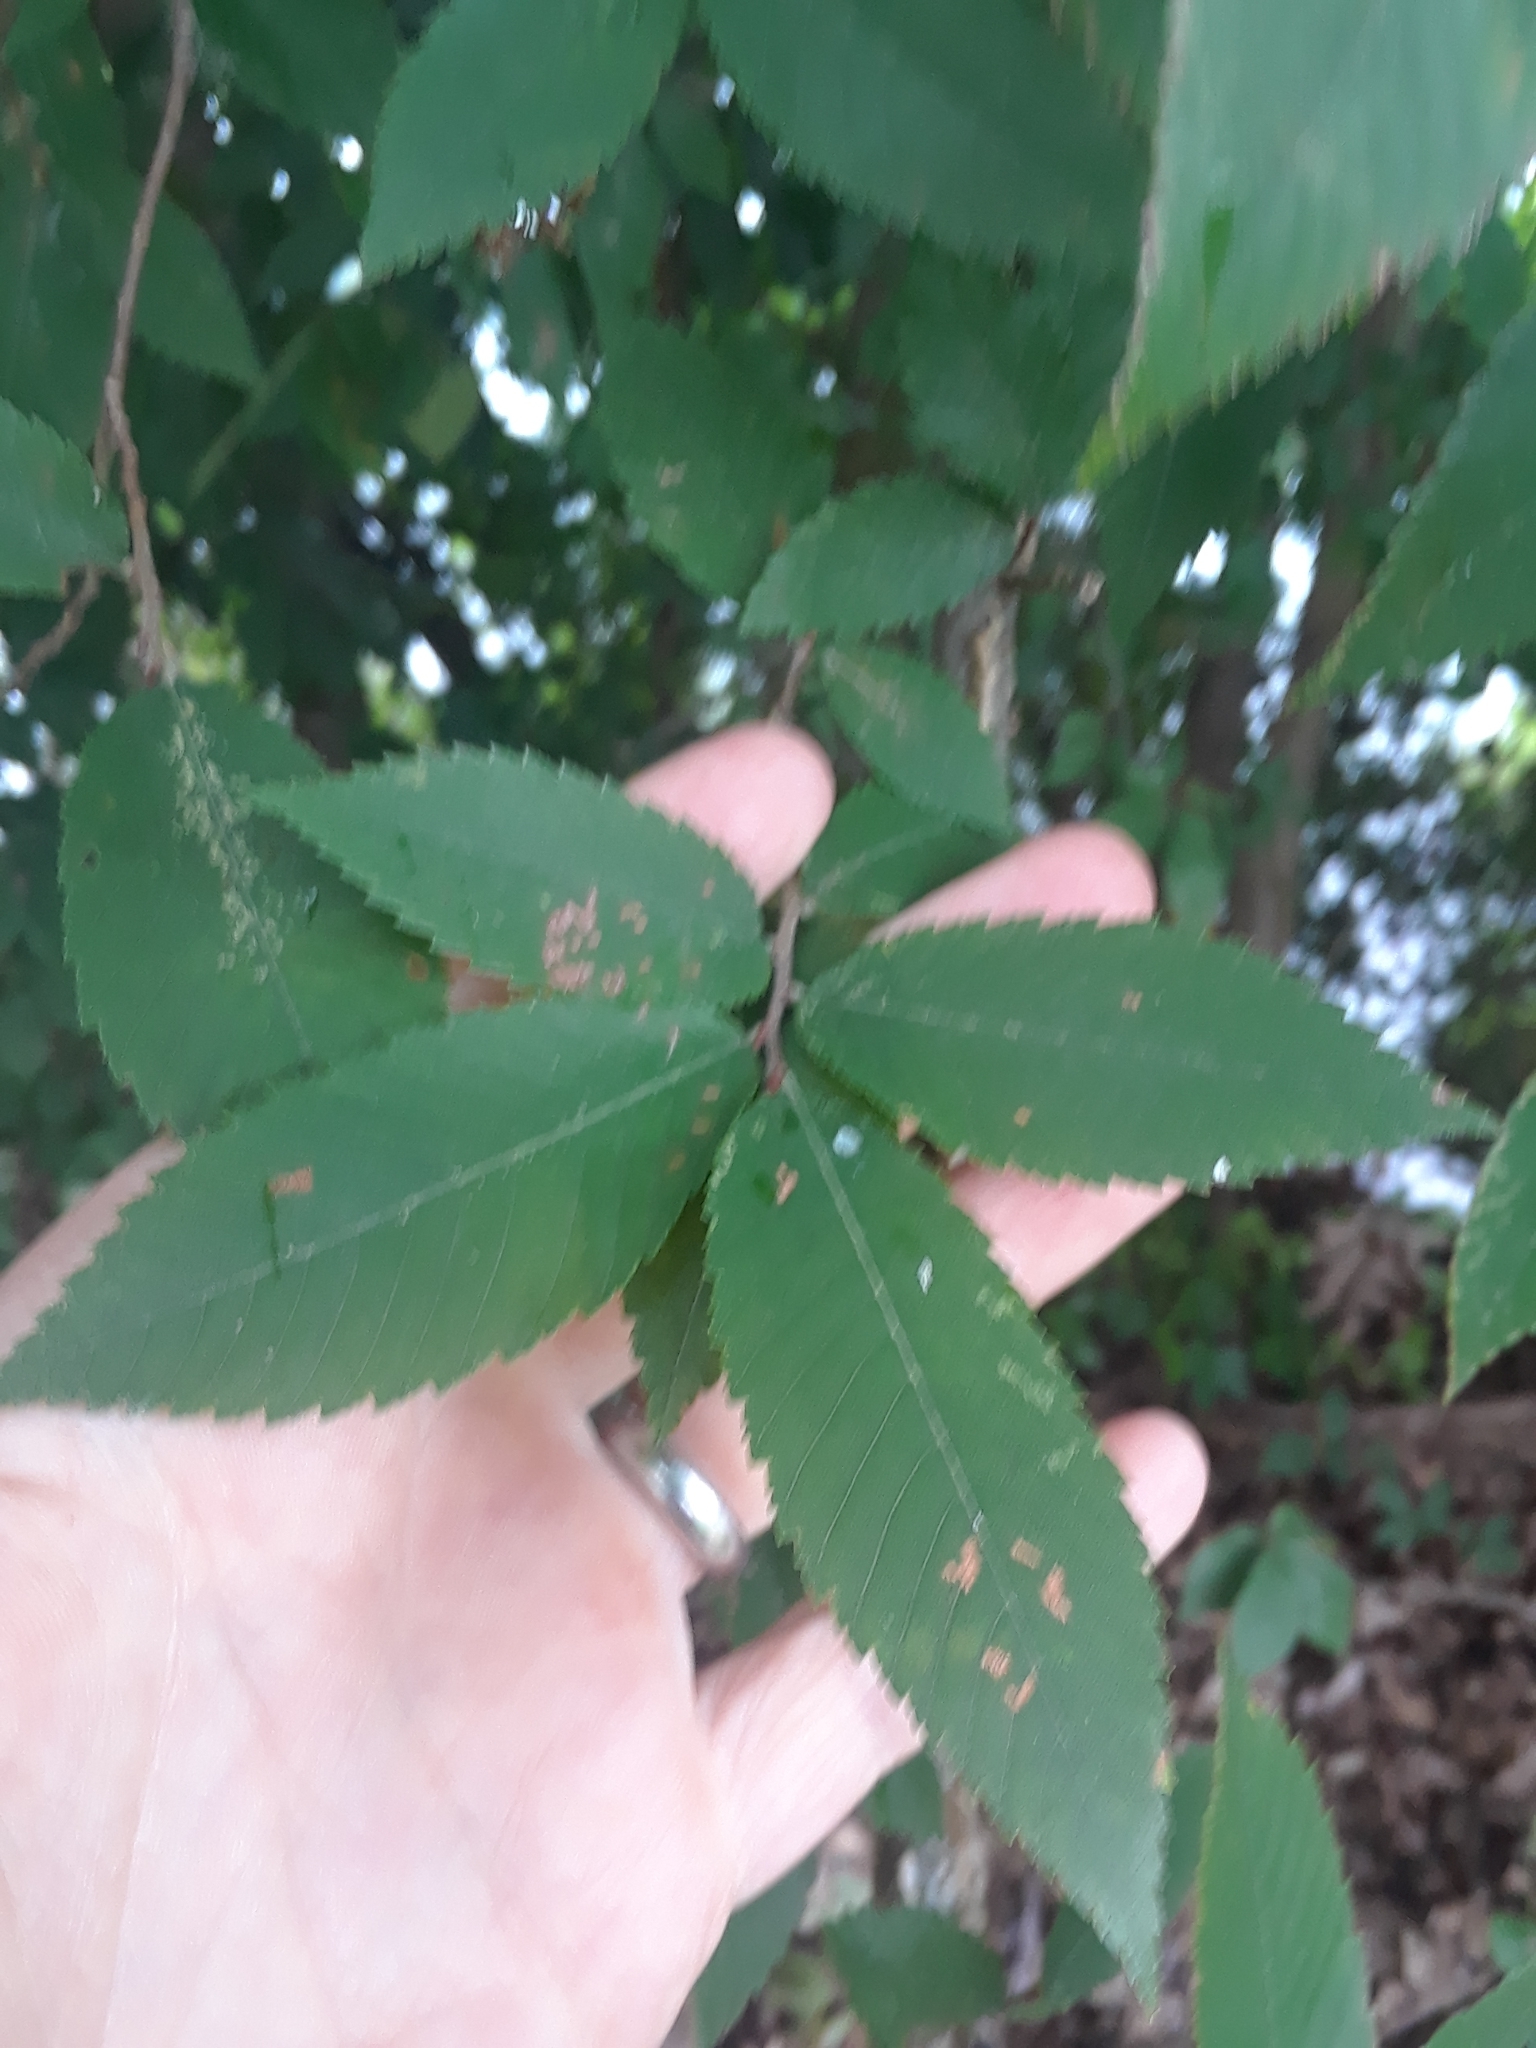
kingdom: Plantae
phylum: Tracheophyta
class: Magnoliopsida
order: Rosales
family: Ulmaceae
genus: Ulmus
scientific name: Ulmus alata
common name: Winged elm
